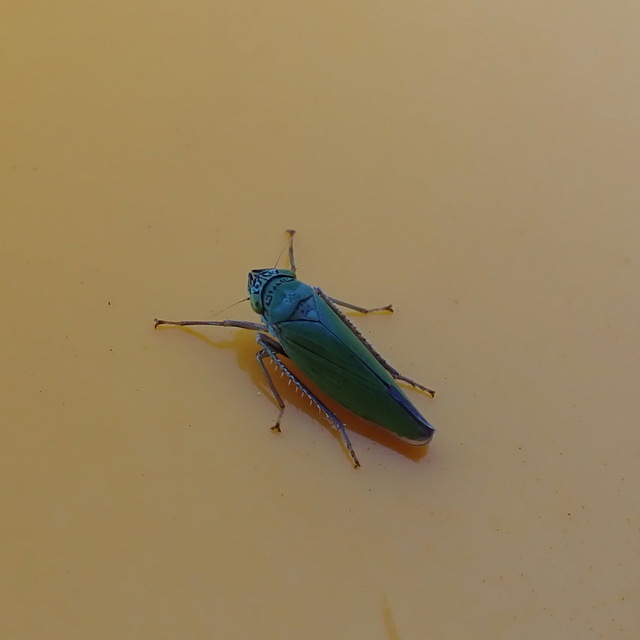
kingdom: Animalia
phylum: Arthropoda
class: Insecta
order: Hemiptera
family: Cicadellidae
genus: Draeculacephala
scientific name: Draeculacephala inscripta
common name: Leafhopper
